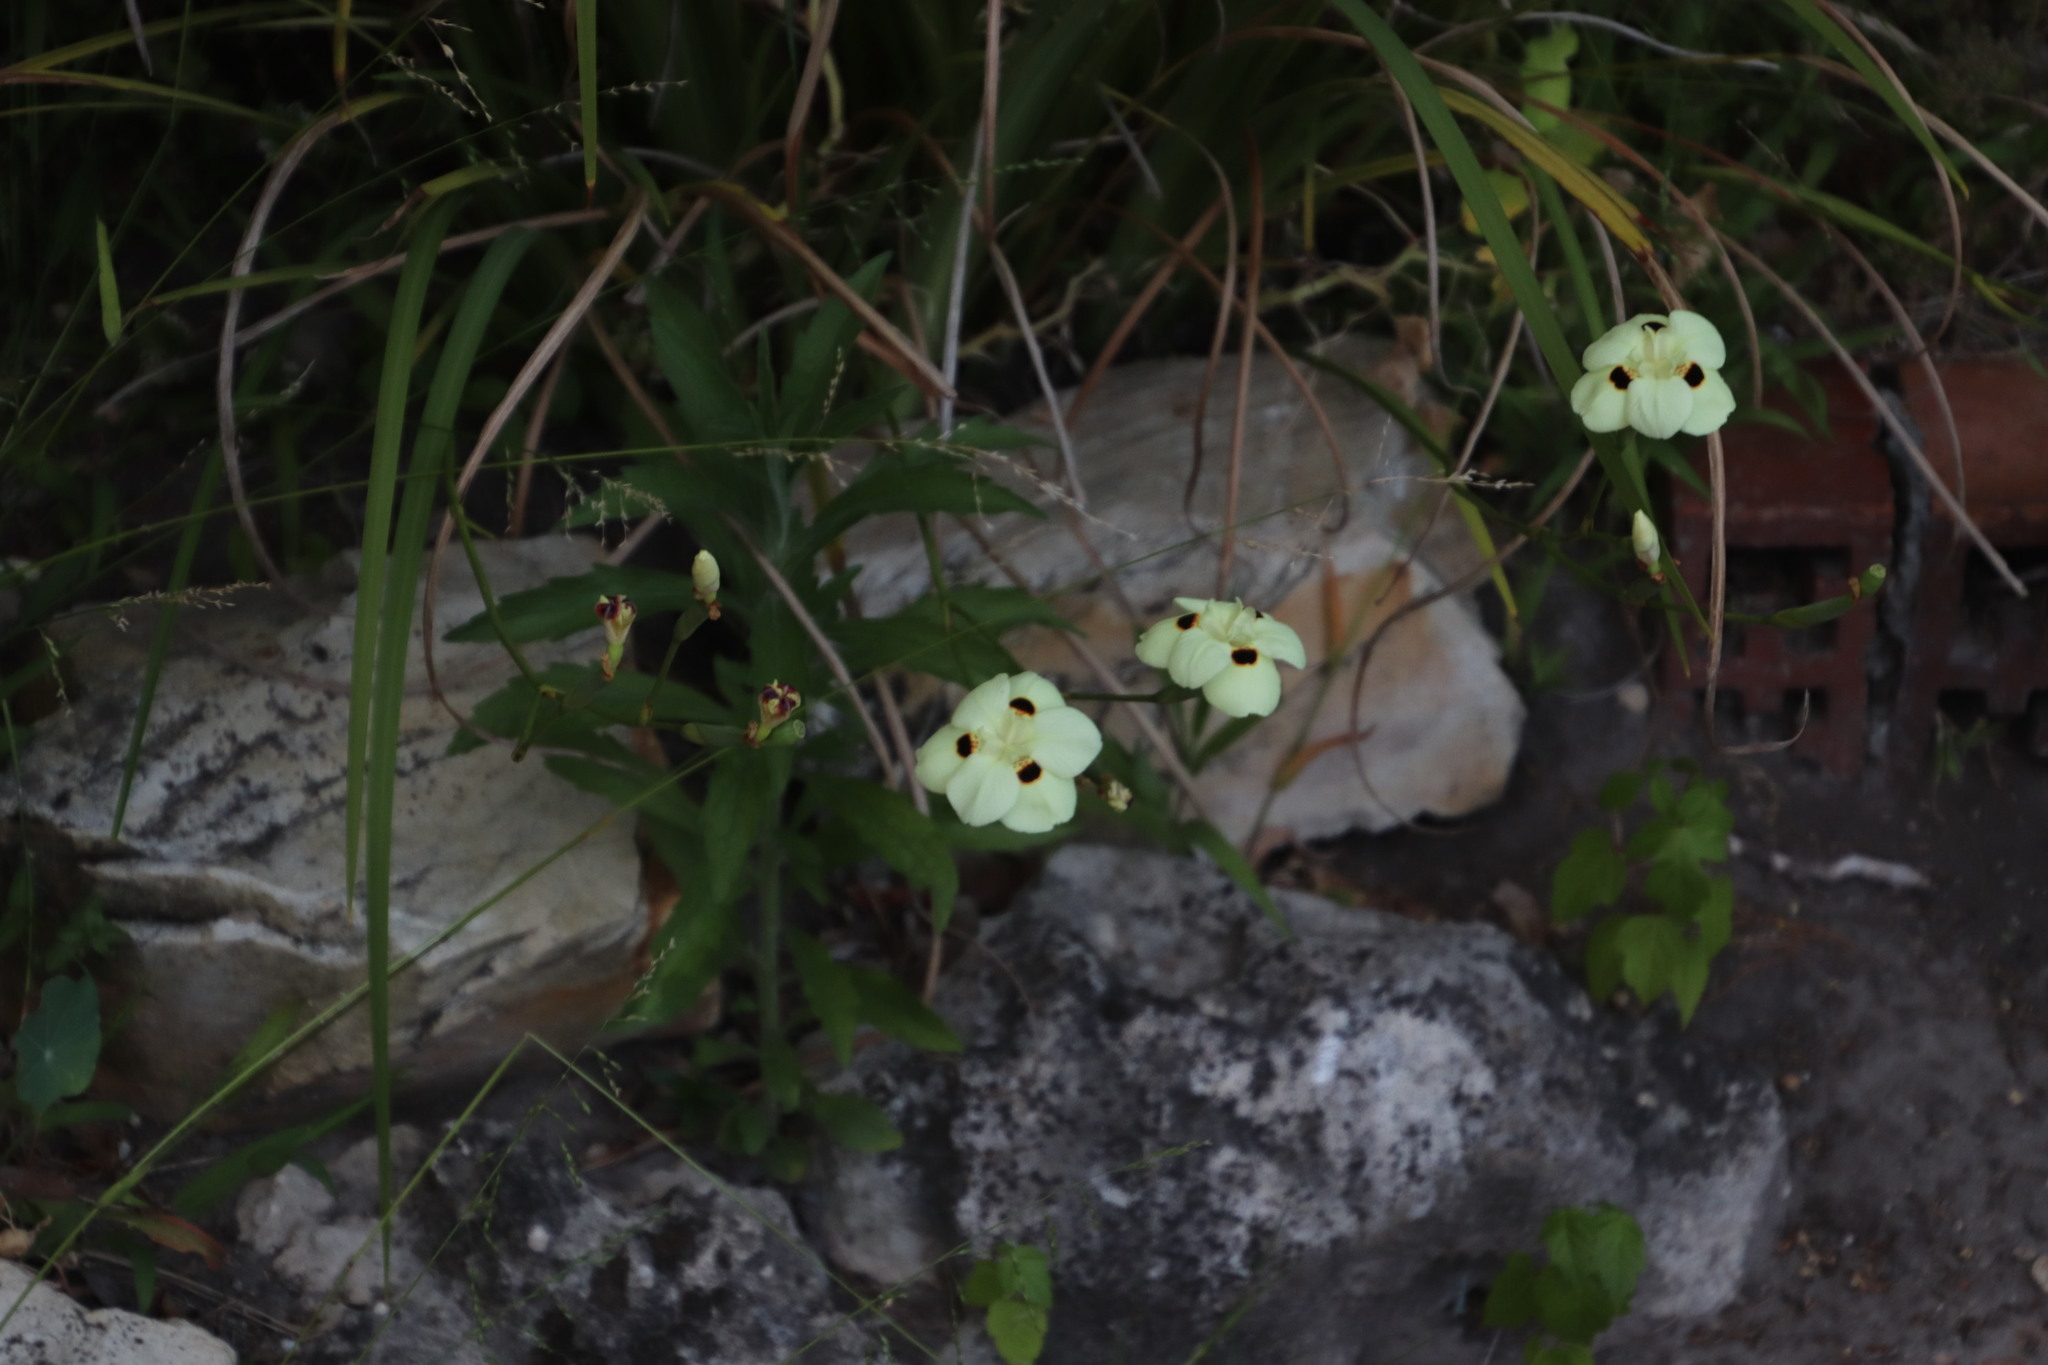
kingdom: Plantae
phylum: Tracheophyta
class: Liliopsida
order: Asparagales
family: Iridaceae
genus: Dietes
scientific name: Dietes bicolor
